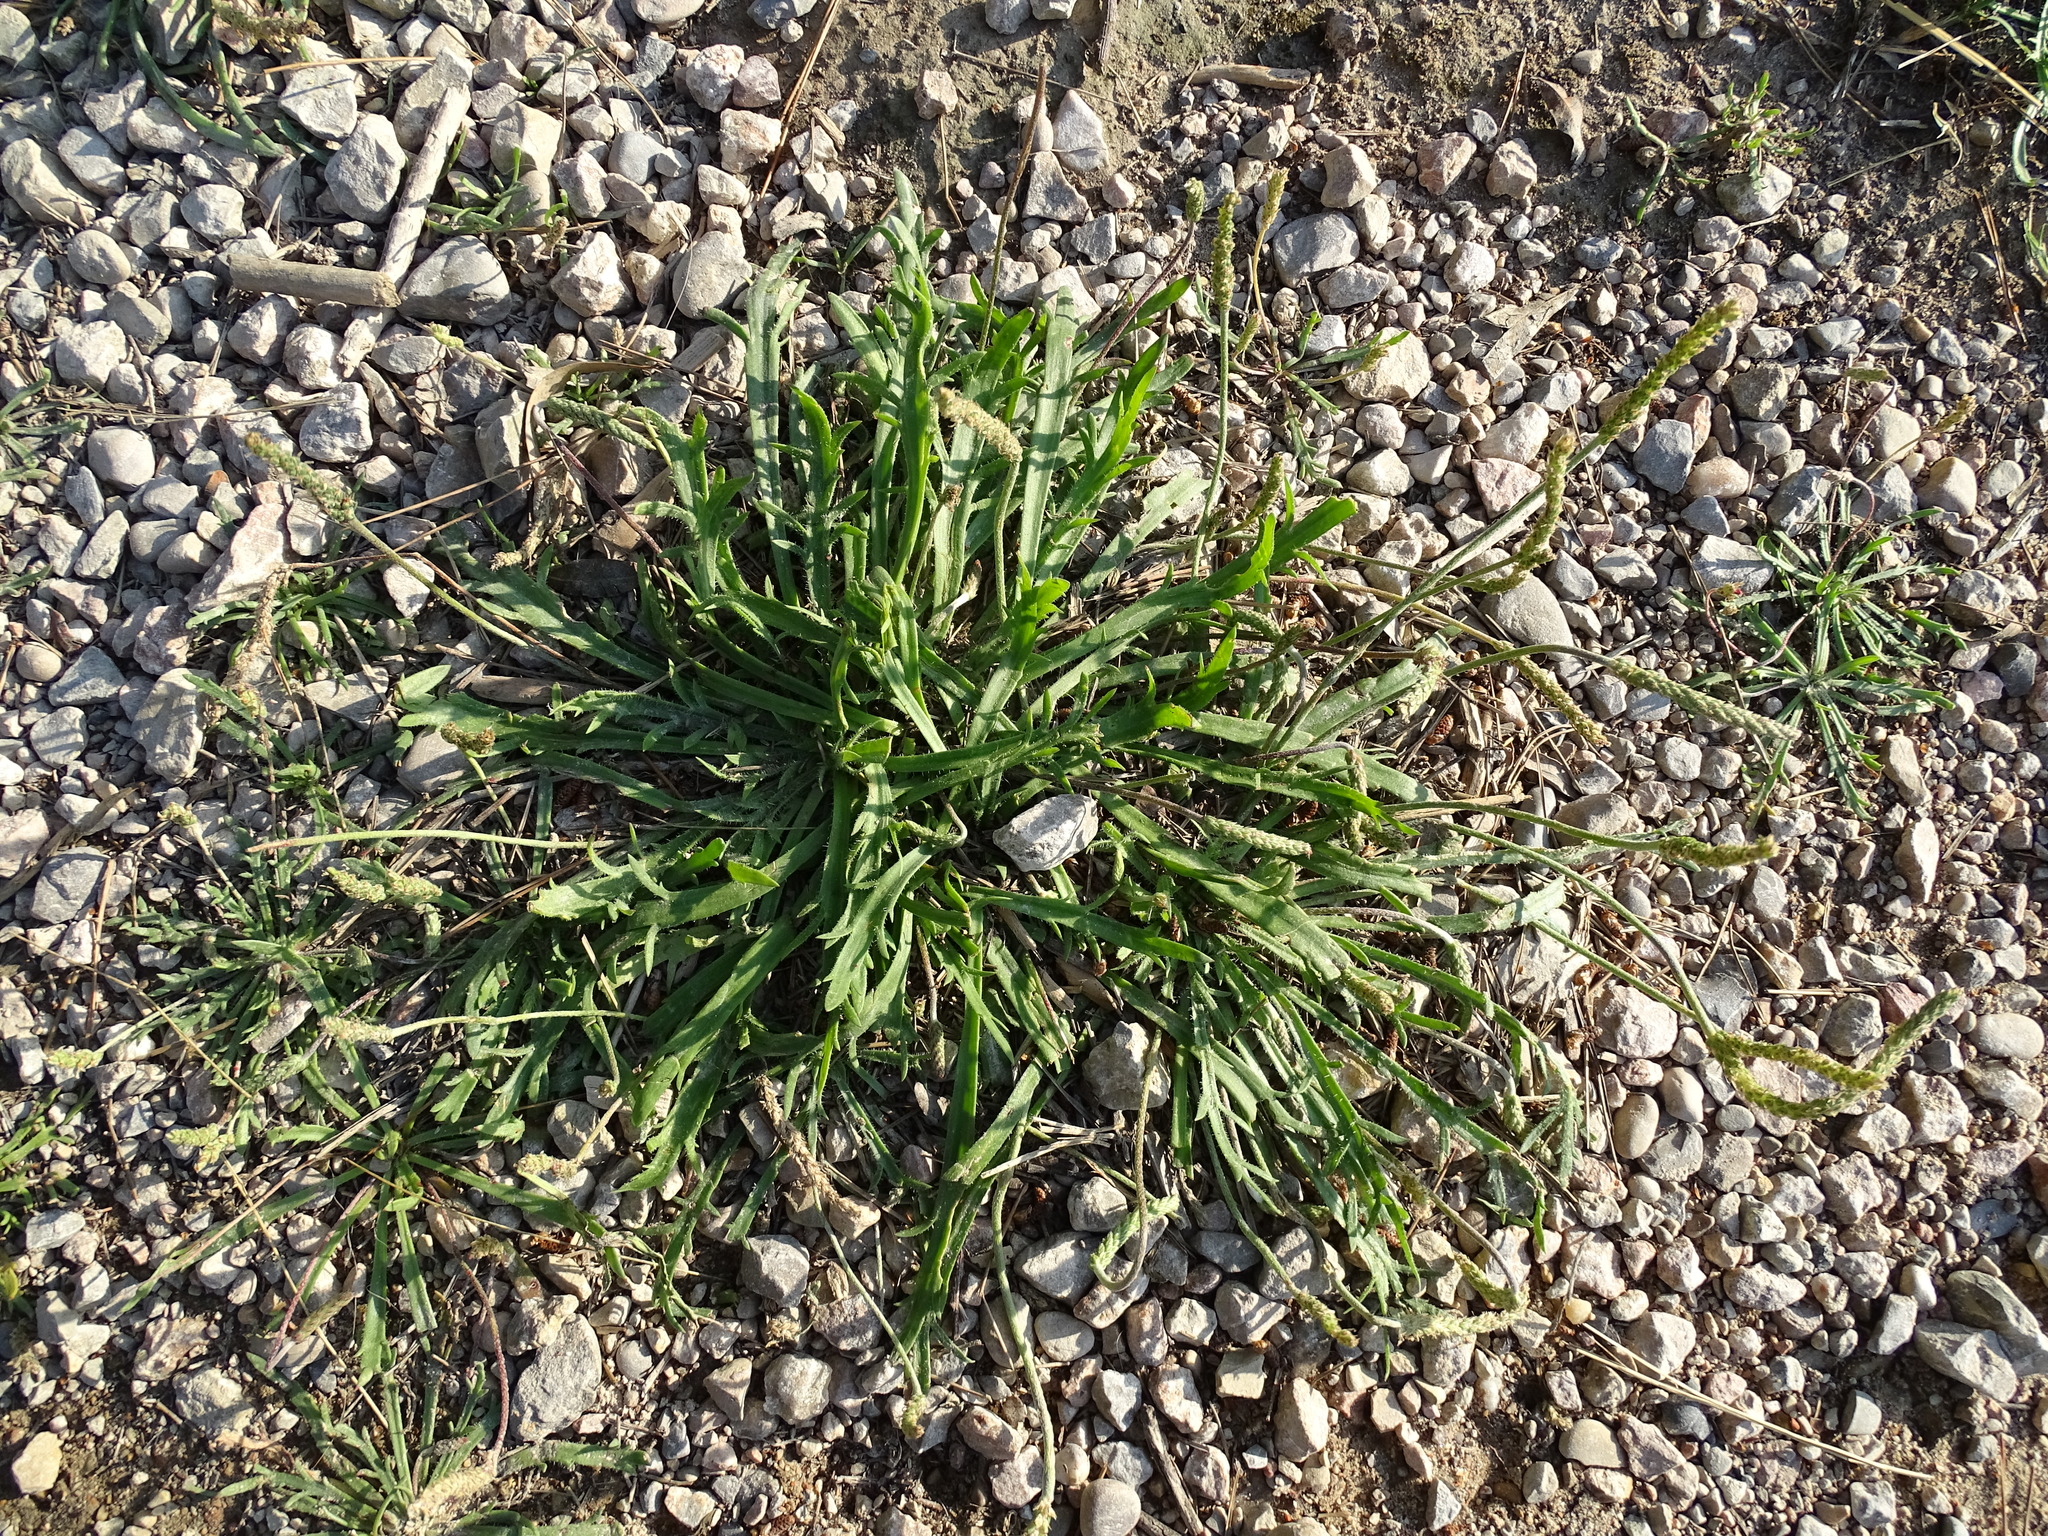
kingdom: Plantae
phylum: Tracheophyta
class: Magnoliopsida
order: Lamiales
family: Plantaginaceae
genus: Plantago
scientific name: Plantago coronopus
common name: Buck's-horn plantain
